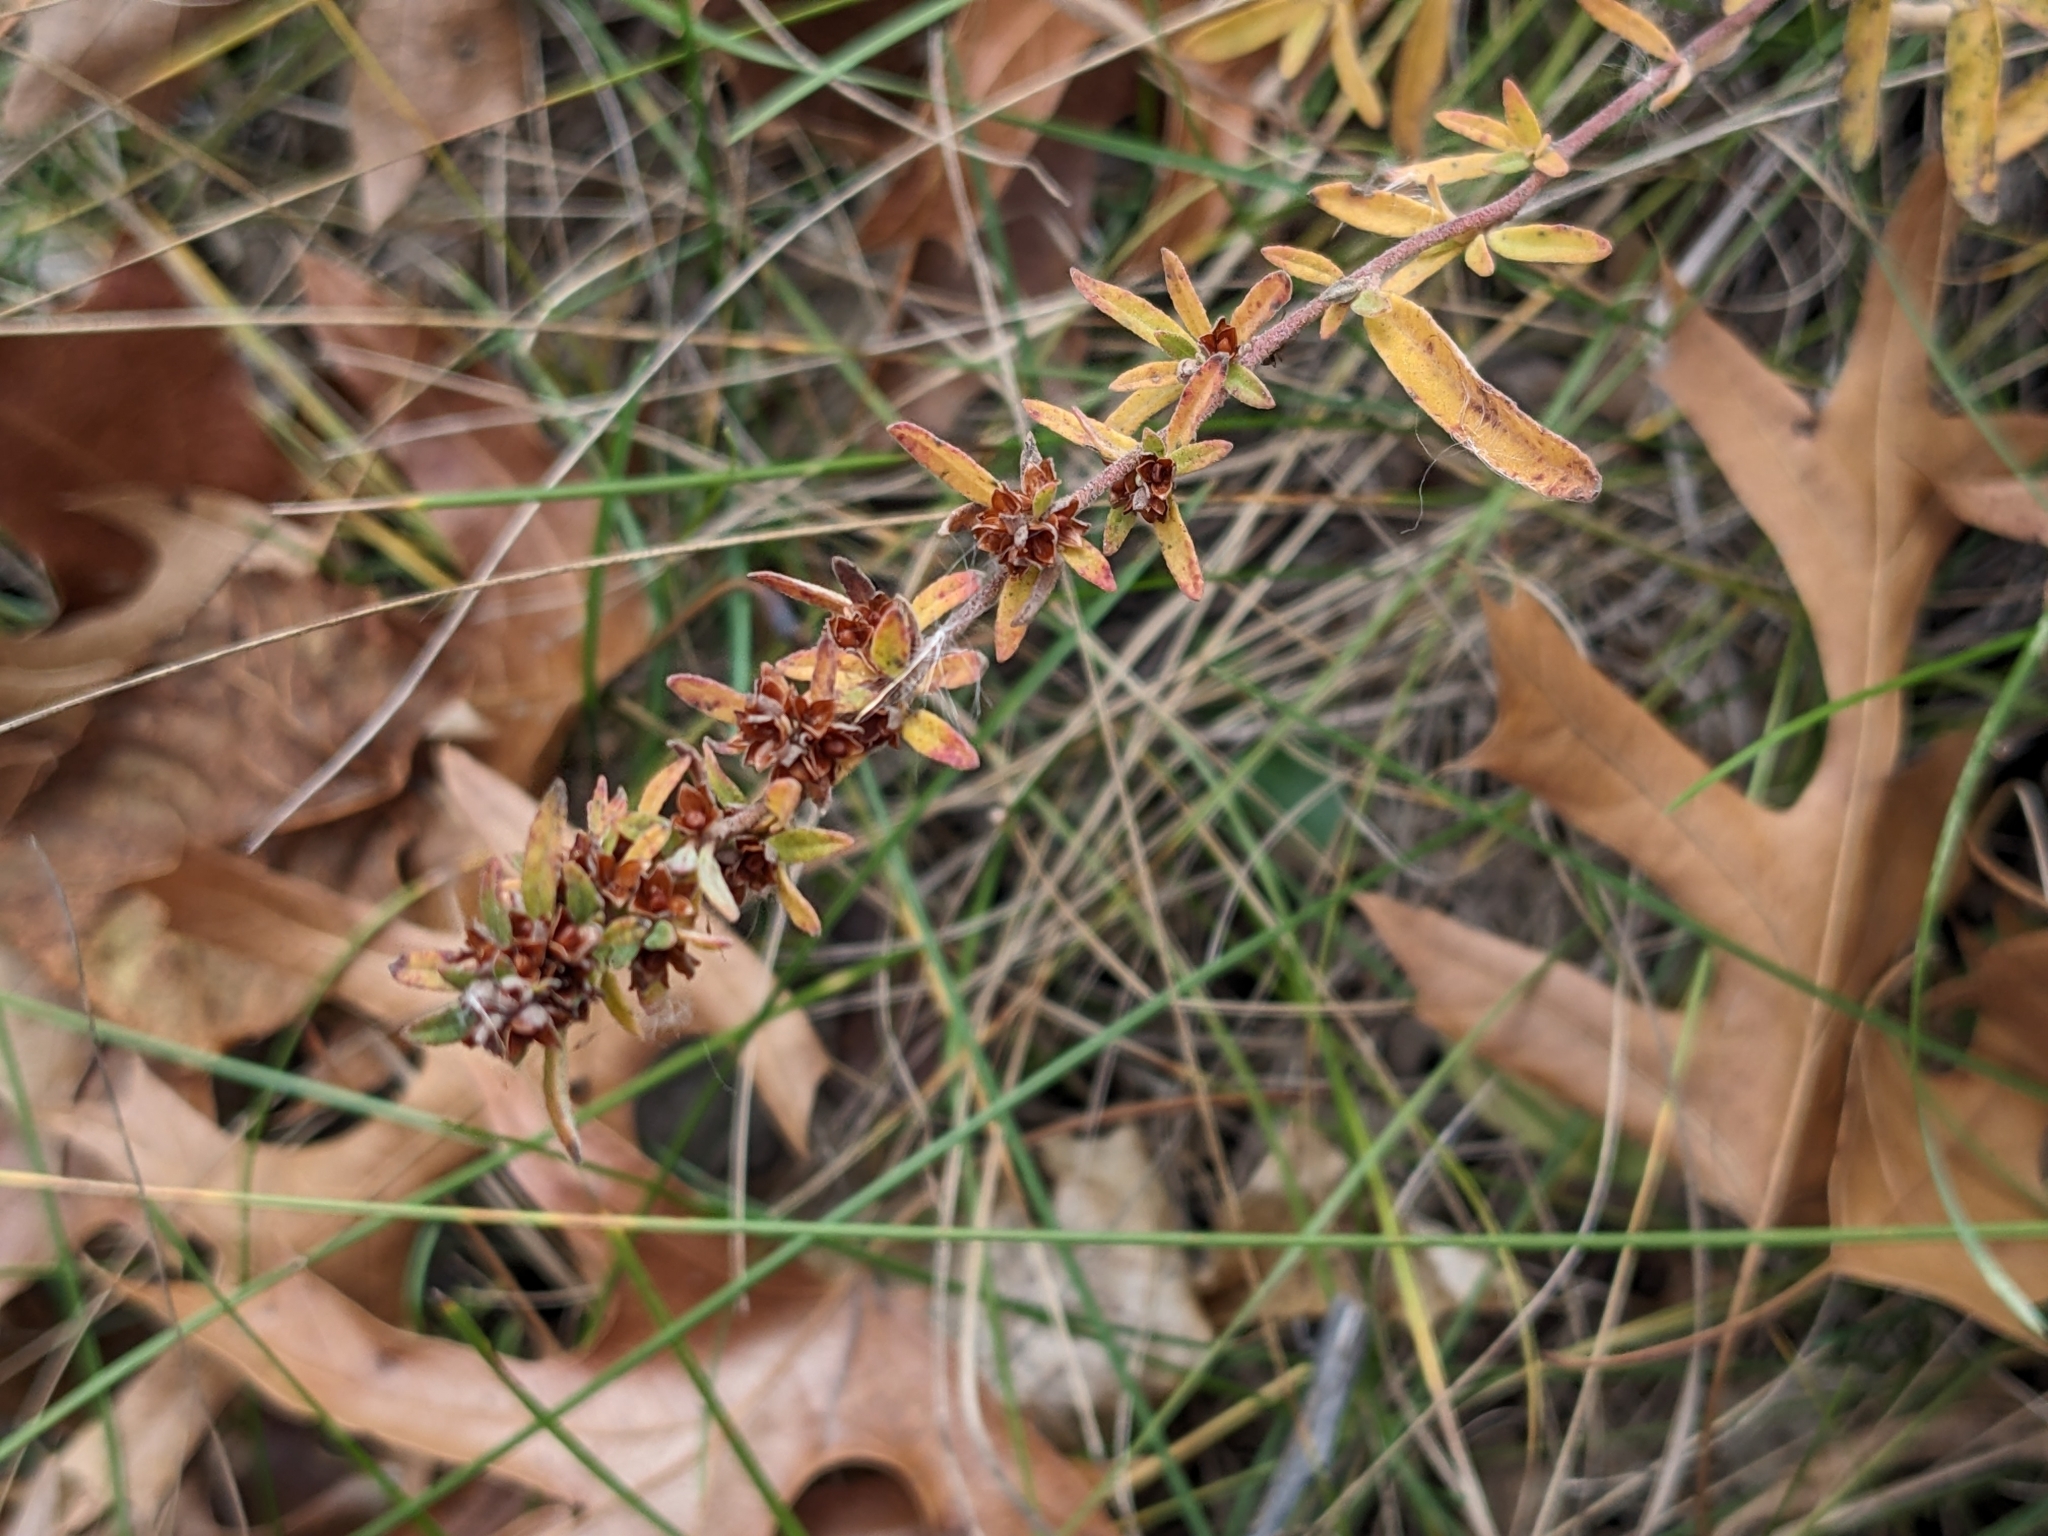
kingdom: Plantae
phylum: Tracheophyta
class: Magnoliopsida
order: Malvales
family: Cistaceae
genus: Crocanthemum
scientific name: Crocanthemum bicknellii
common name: Hoary frostweed
